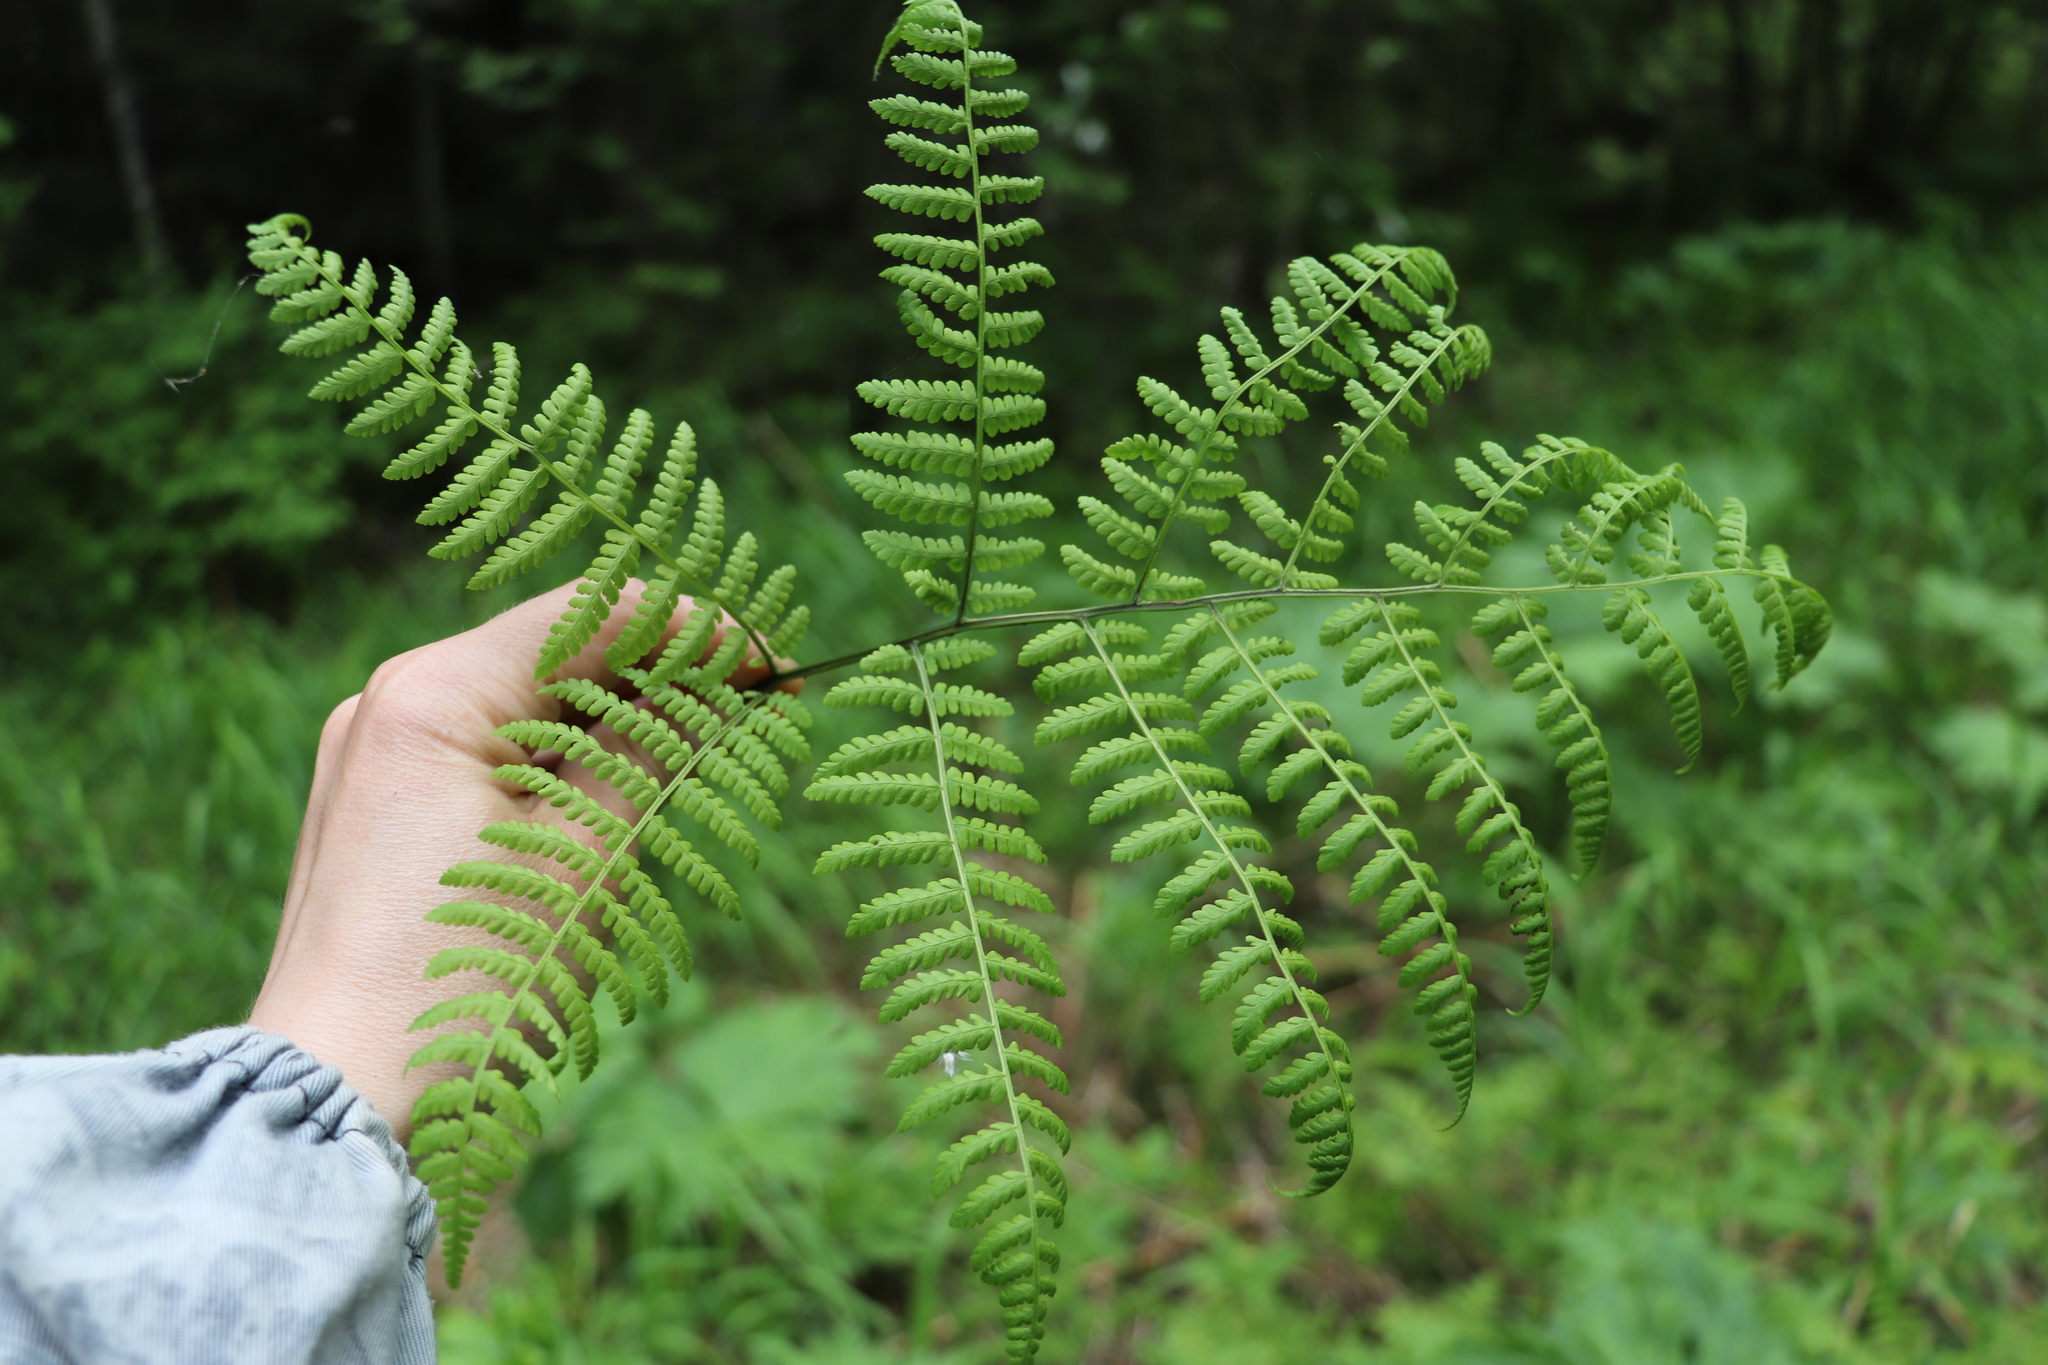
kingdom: Plantae
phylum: Tracheophyta
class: Polypodiopsida
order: Polypodiales
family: Athyriaceae
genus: Diplazium
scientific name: Diplazium sibiricum
